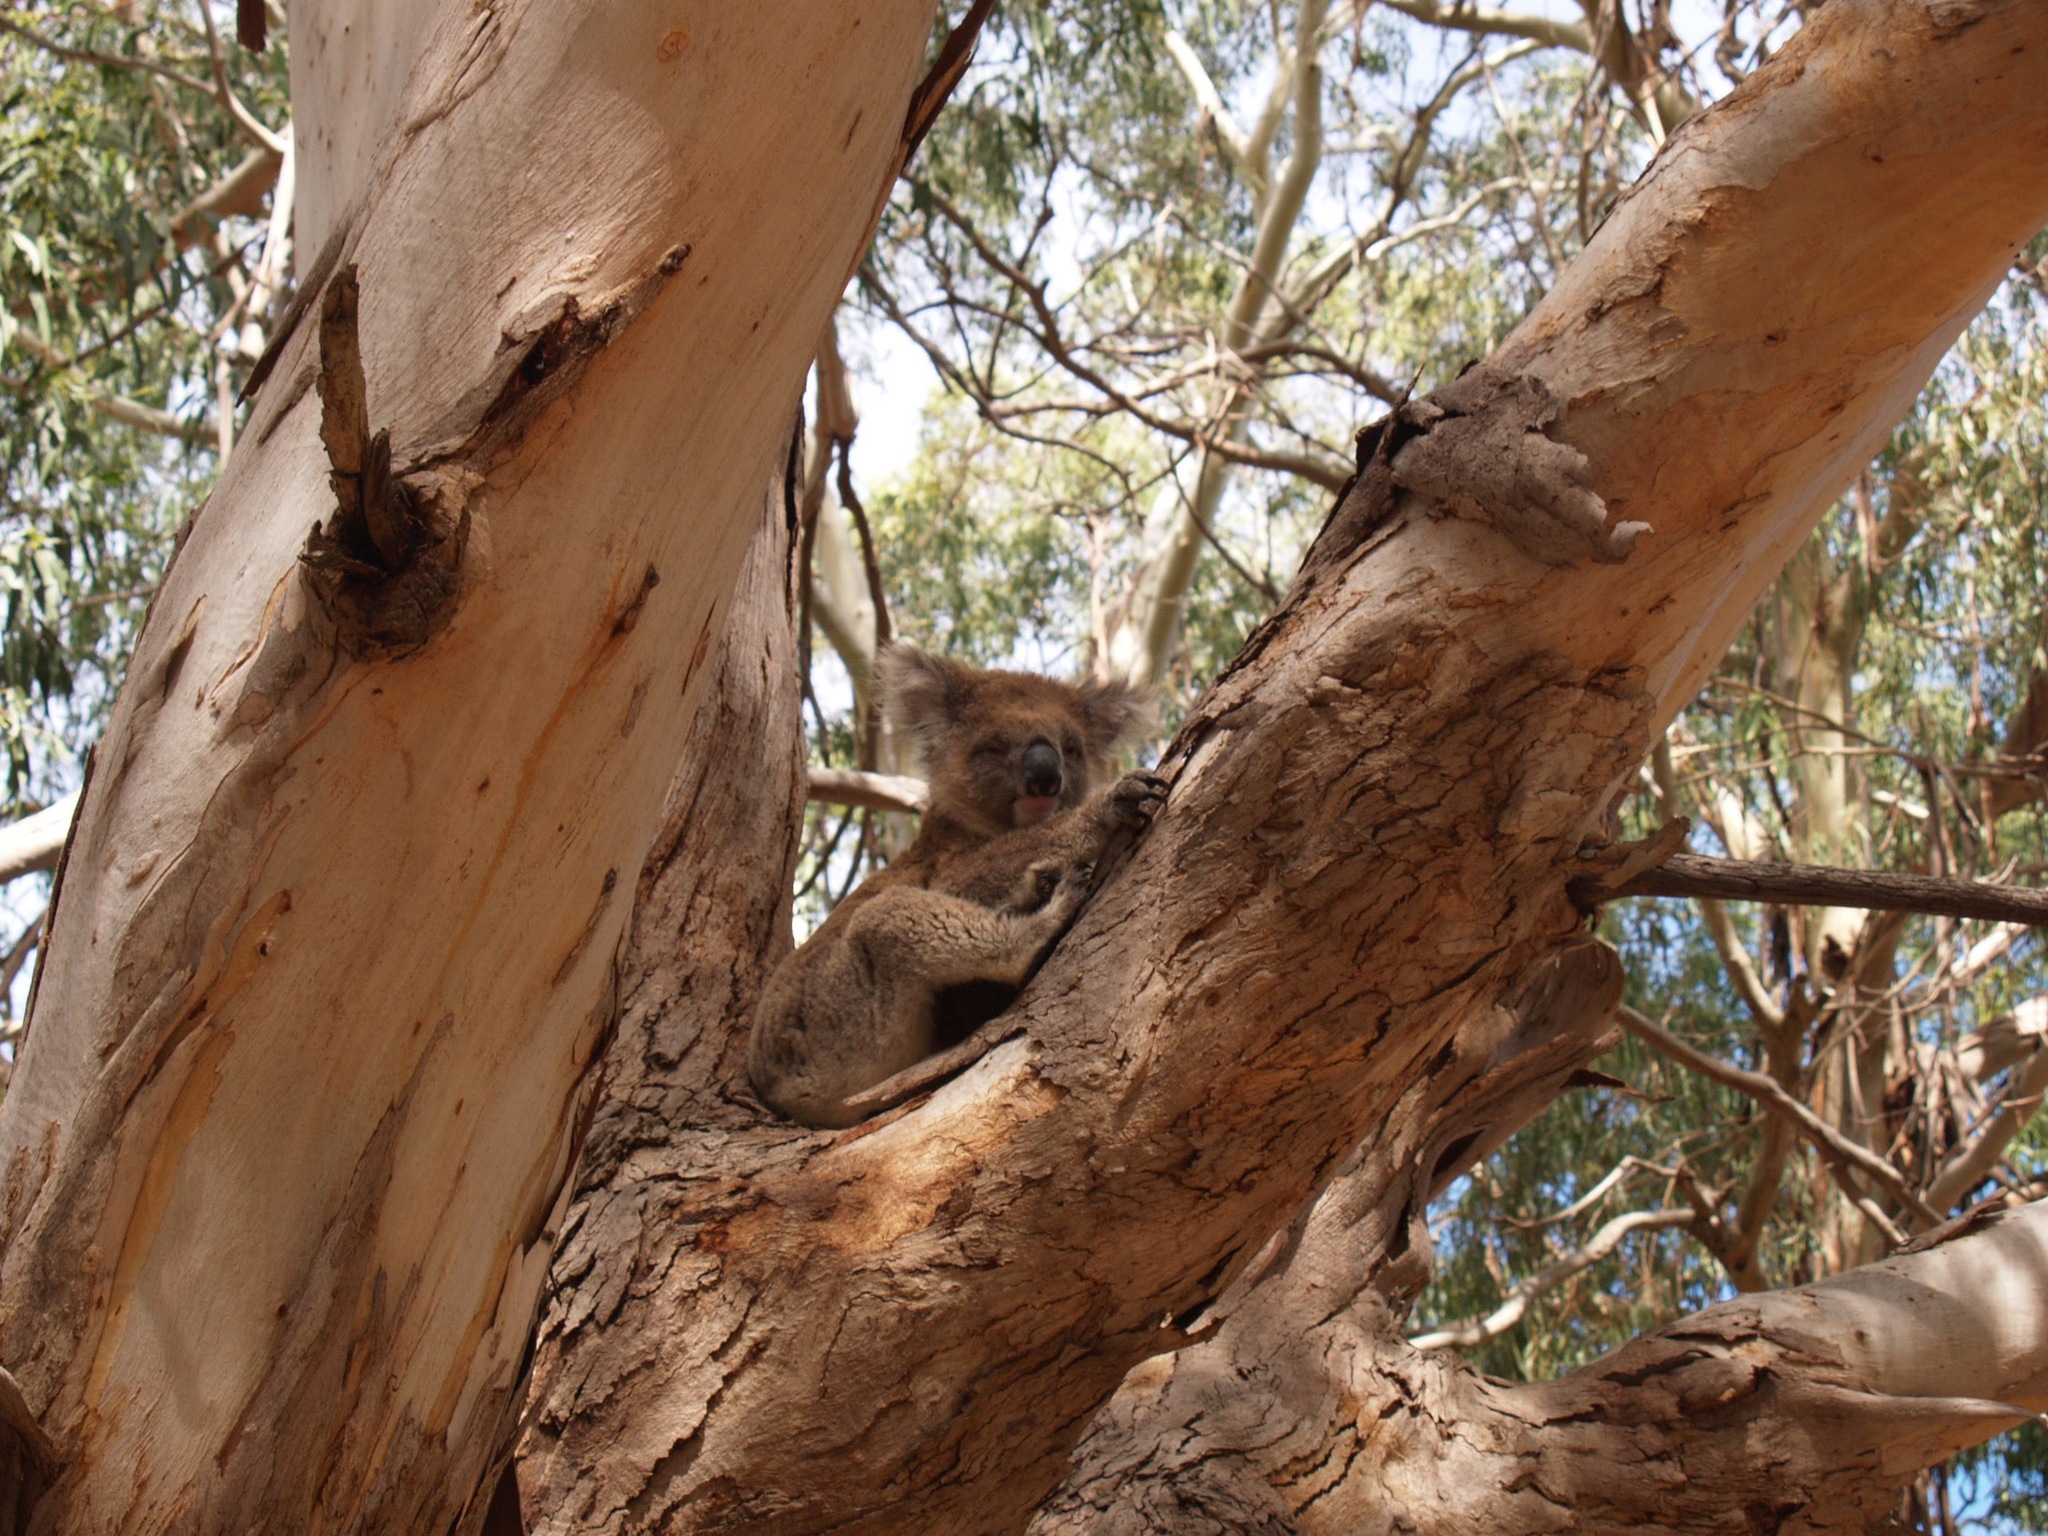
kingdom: Animalia
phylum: Chordata
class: Mammalia
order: Diprotodontia
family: Phascolarctidae
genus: Phascolarctos
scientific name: Phascolarctos cinereus
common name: Koala
